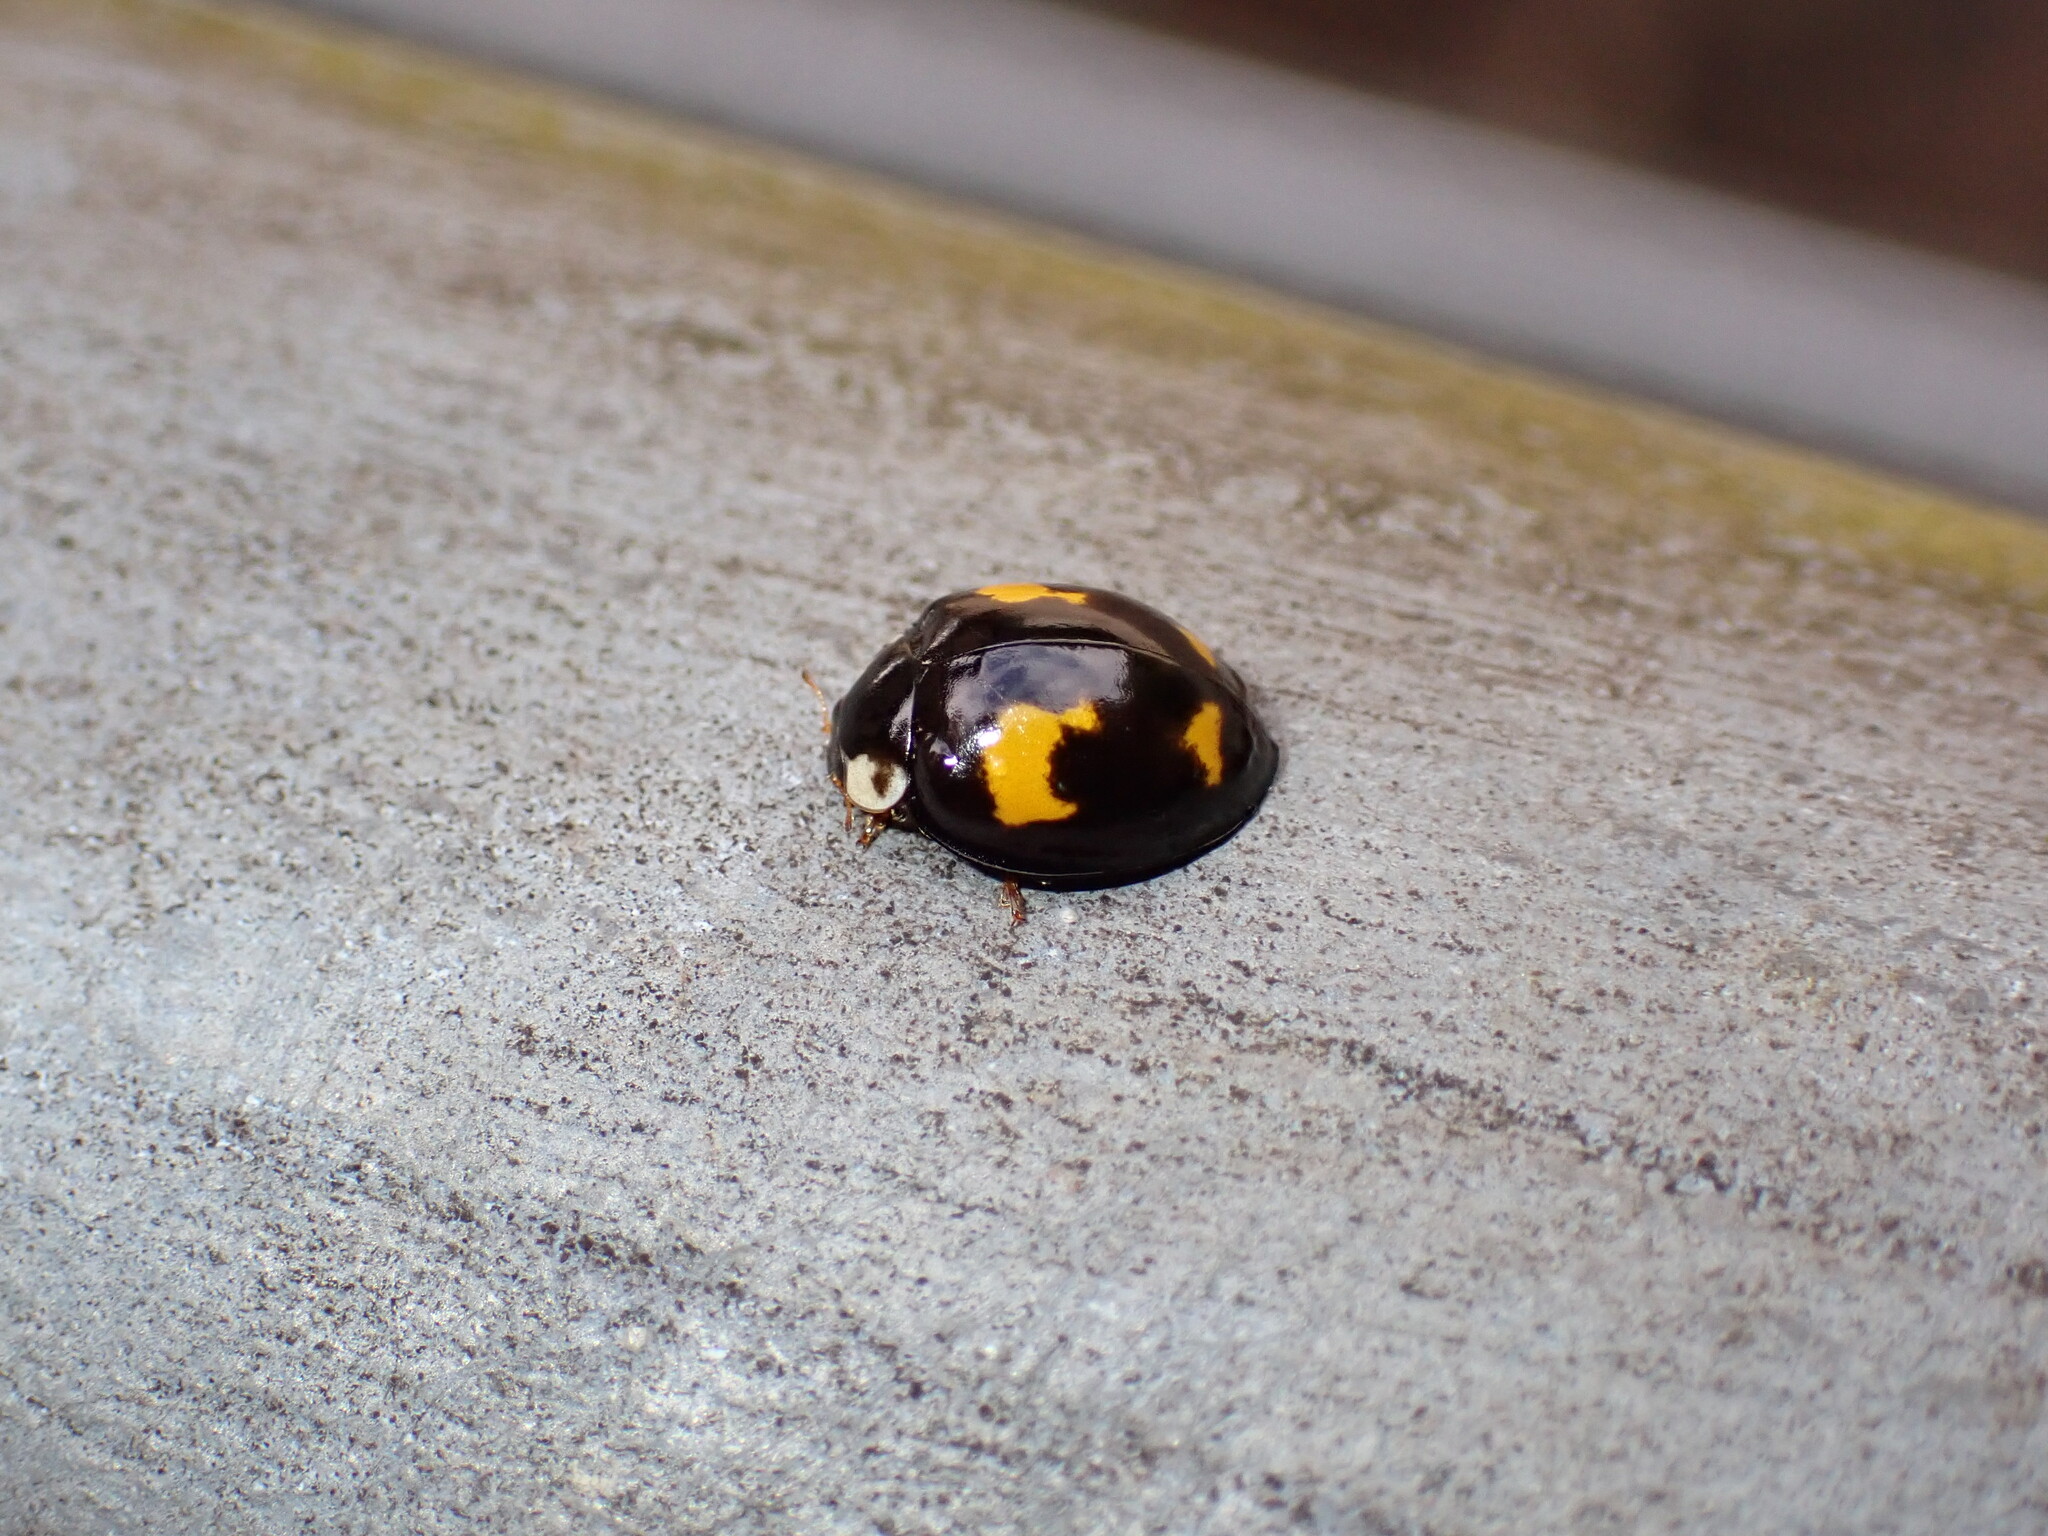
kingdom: Animalia
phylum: Arthropoda
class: Insecta
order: Coleoptera
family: Coccinellidae
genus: Harmonia
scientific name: Harmonia axyridis
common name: Harlequin ladybird
